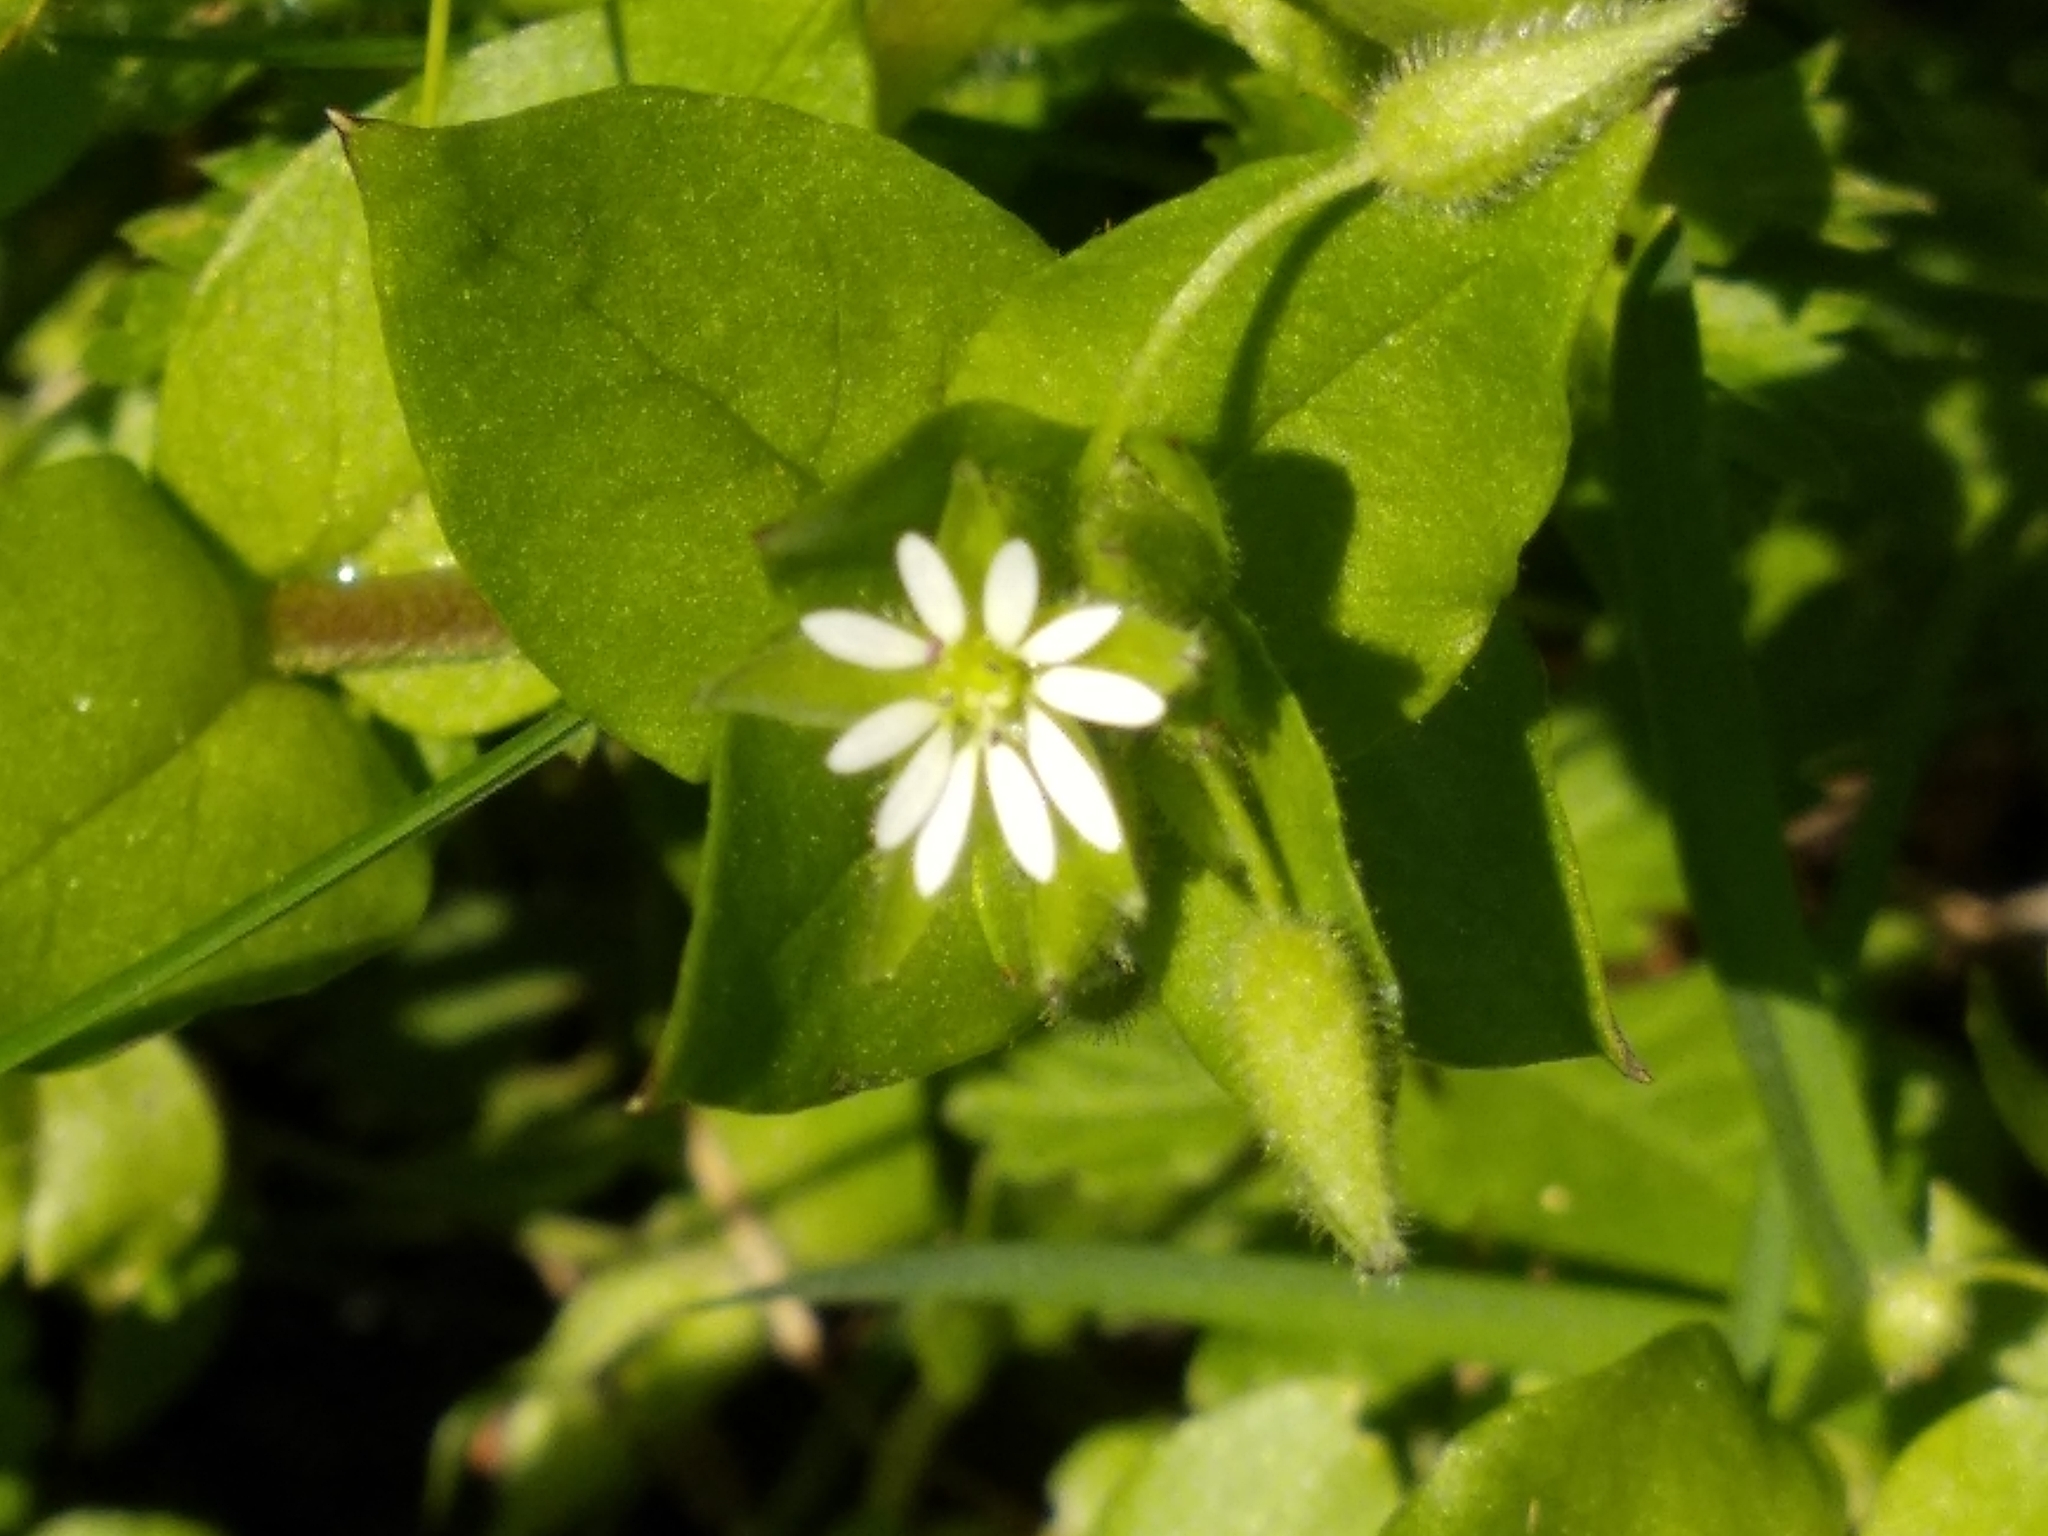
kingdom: Plantae
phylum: Tracheophyta
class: Magnoliopsida
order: Caryophyllales
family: Caryophyllaceae
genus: Stellaria
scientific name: Stellaria media
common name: Common chickweed
